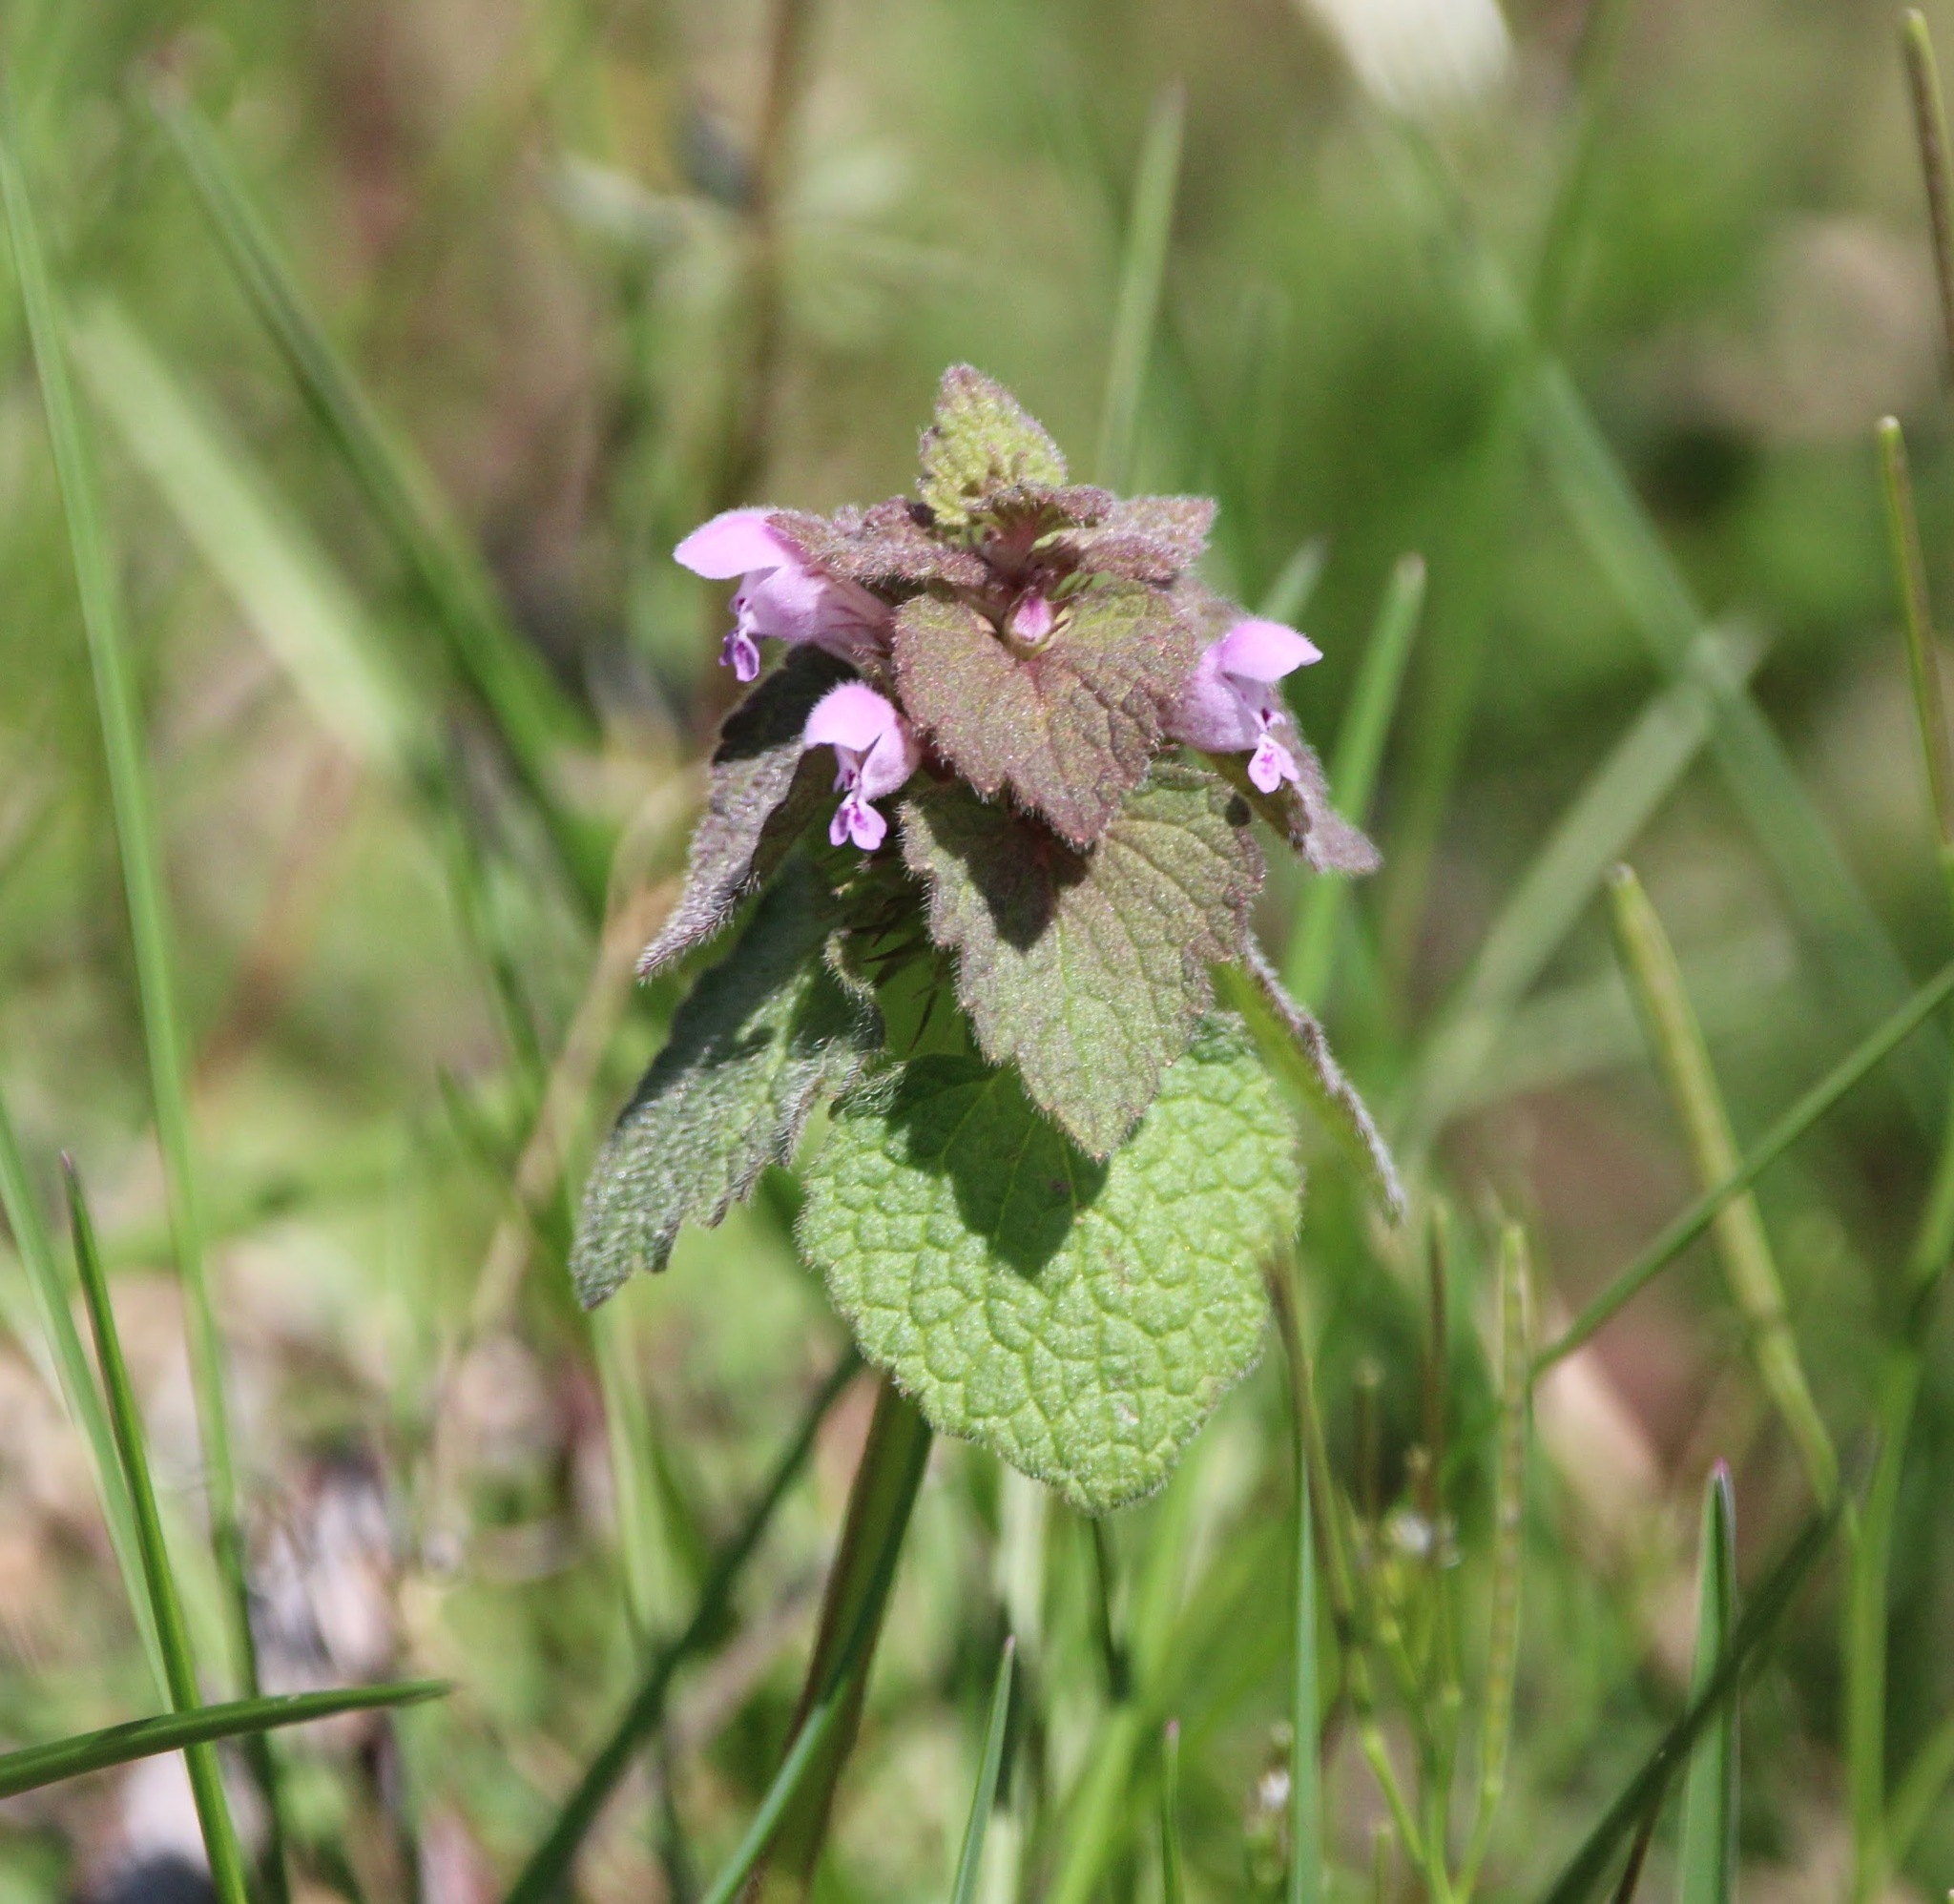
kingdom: Plantae
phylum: Tracheophyta
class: Magnoliopsida
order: Lamiales
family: Lamiaceae
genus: Lamium
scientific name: Lamium purpureum
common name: Red dead-nettle
